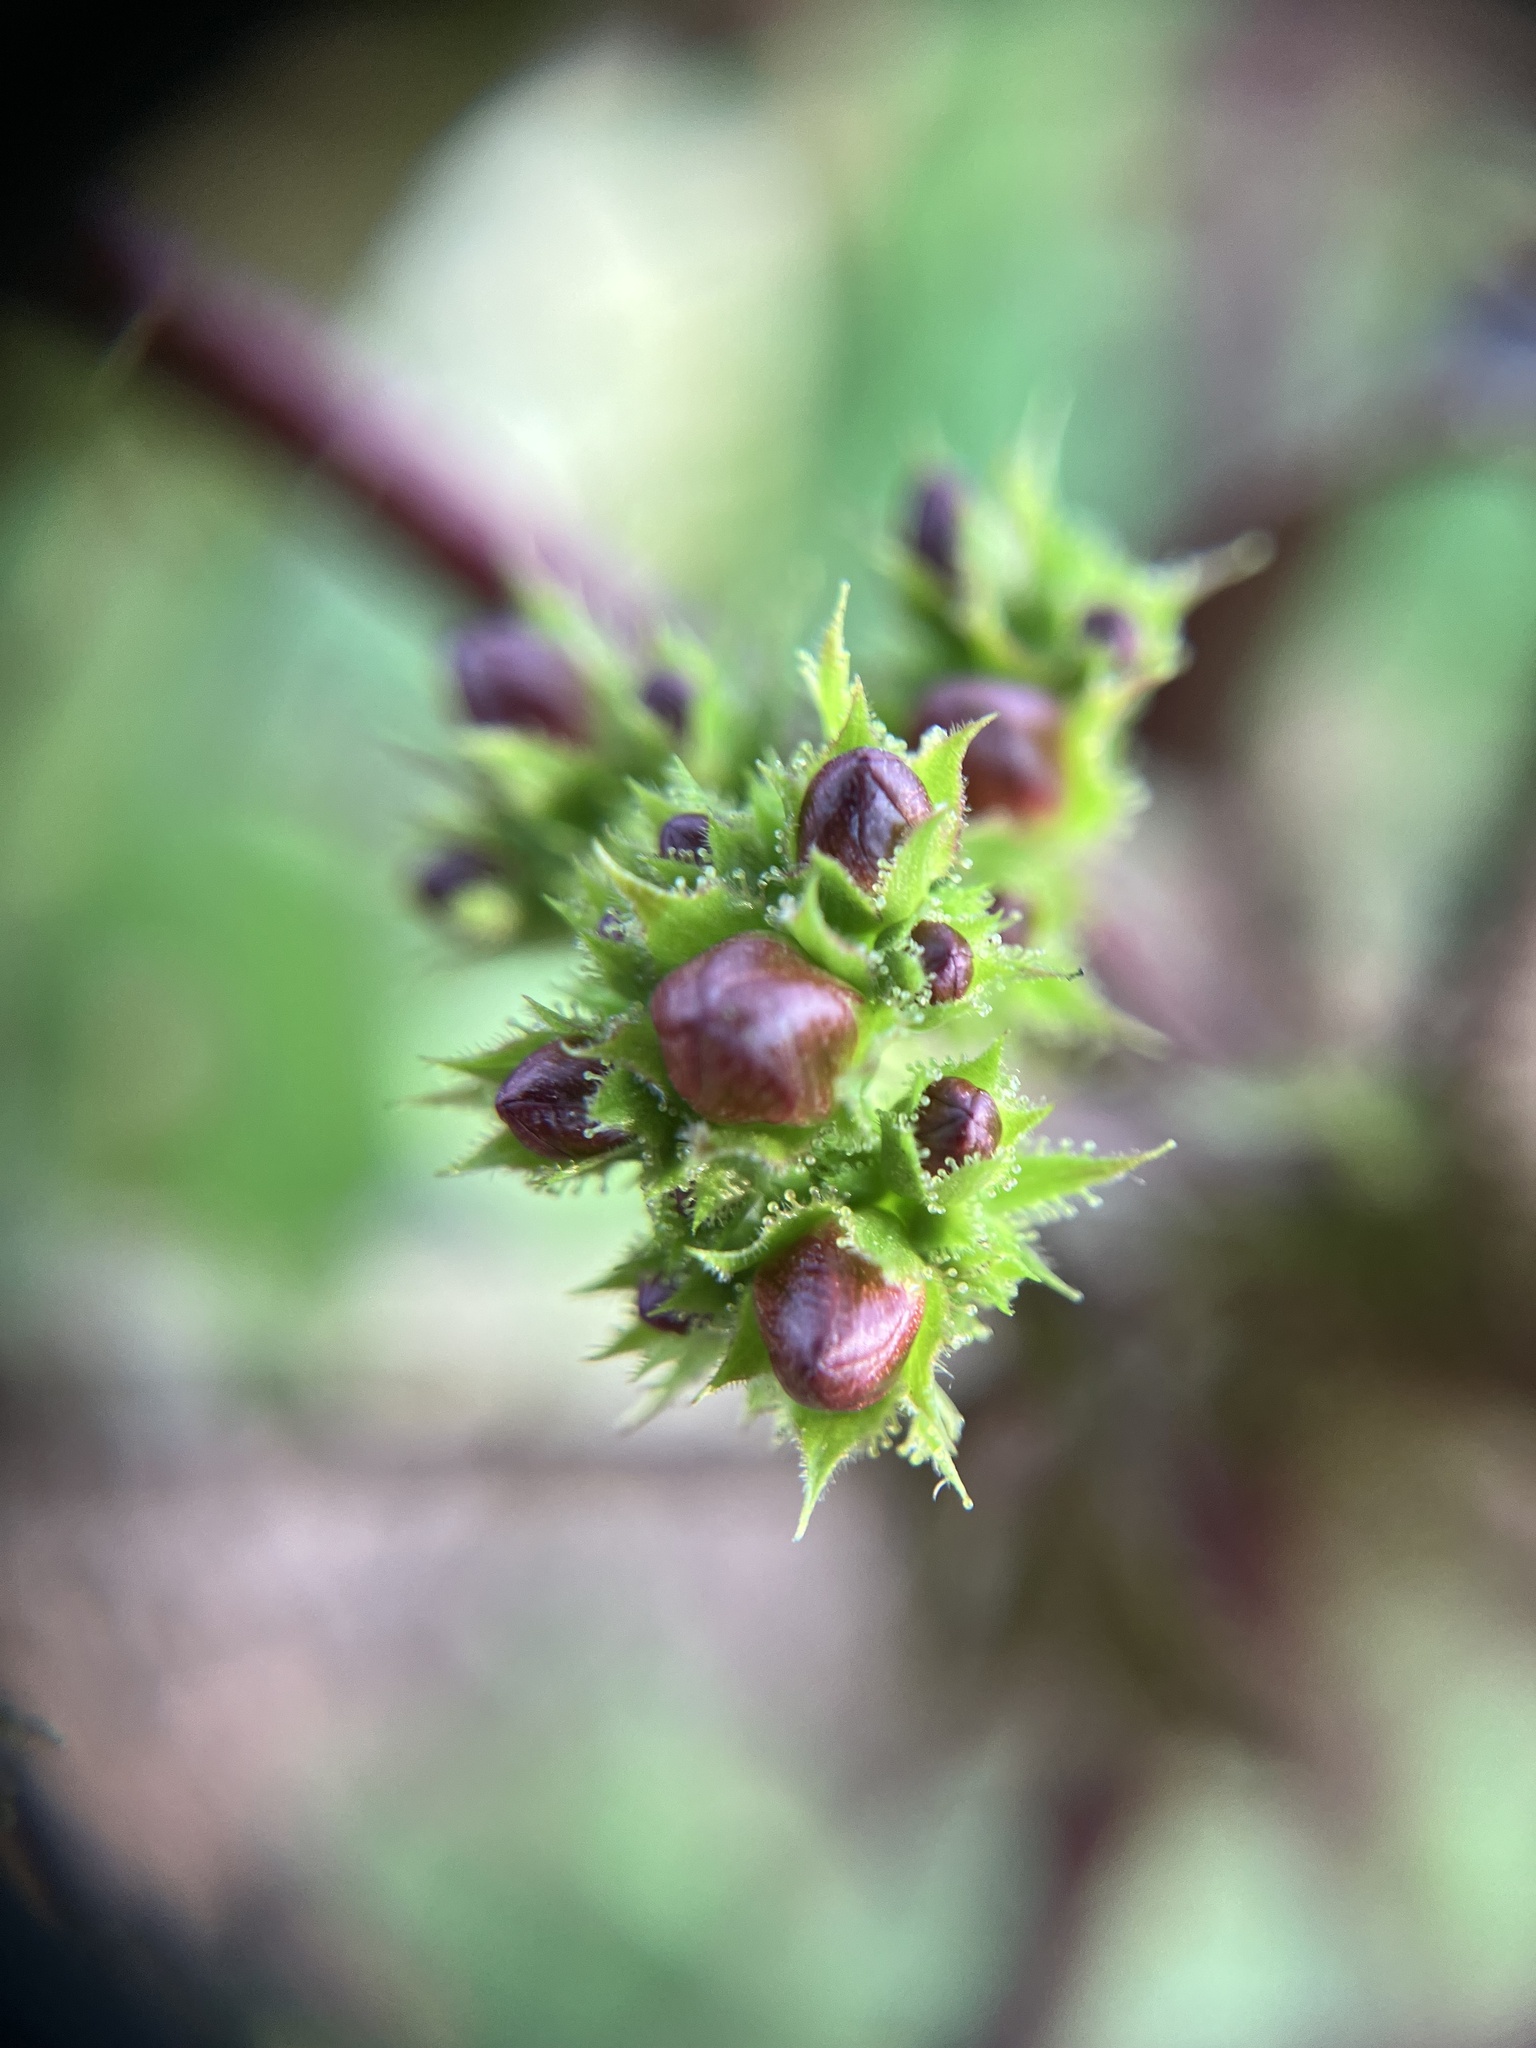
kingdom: Plantae
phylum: Tracheophyta
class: Magnoliopsida
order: Malpighiales
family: Euphorbiaceae
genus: Jatropha
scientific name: Jatropha gossypiifolia
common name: Bellyache bush
